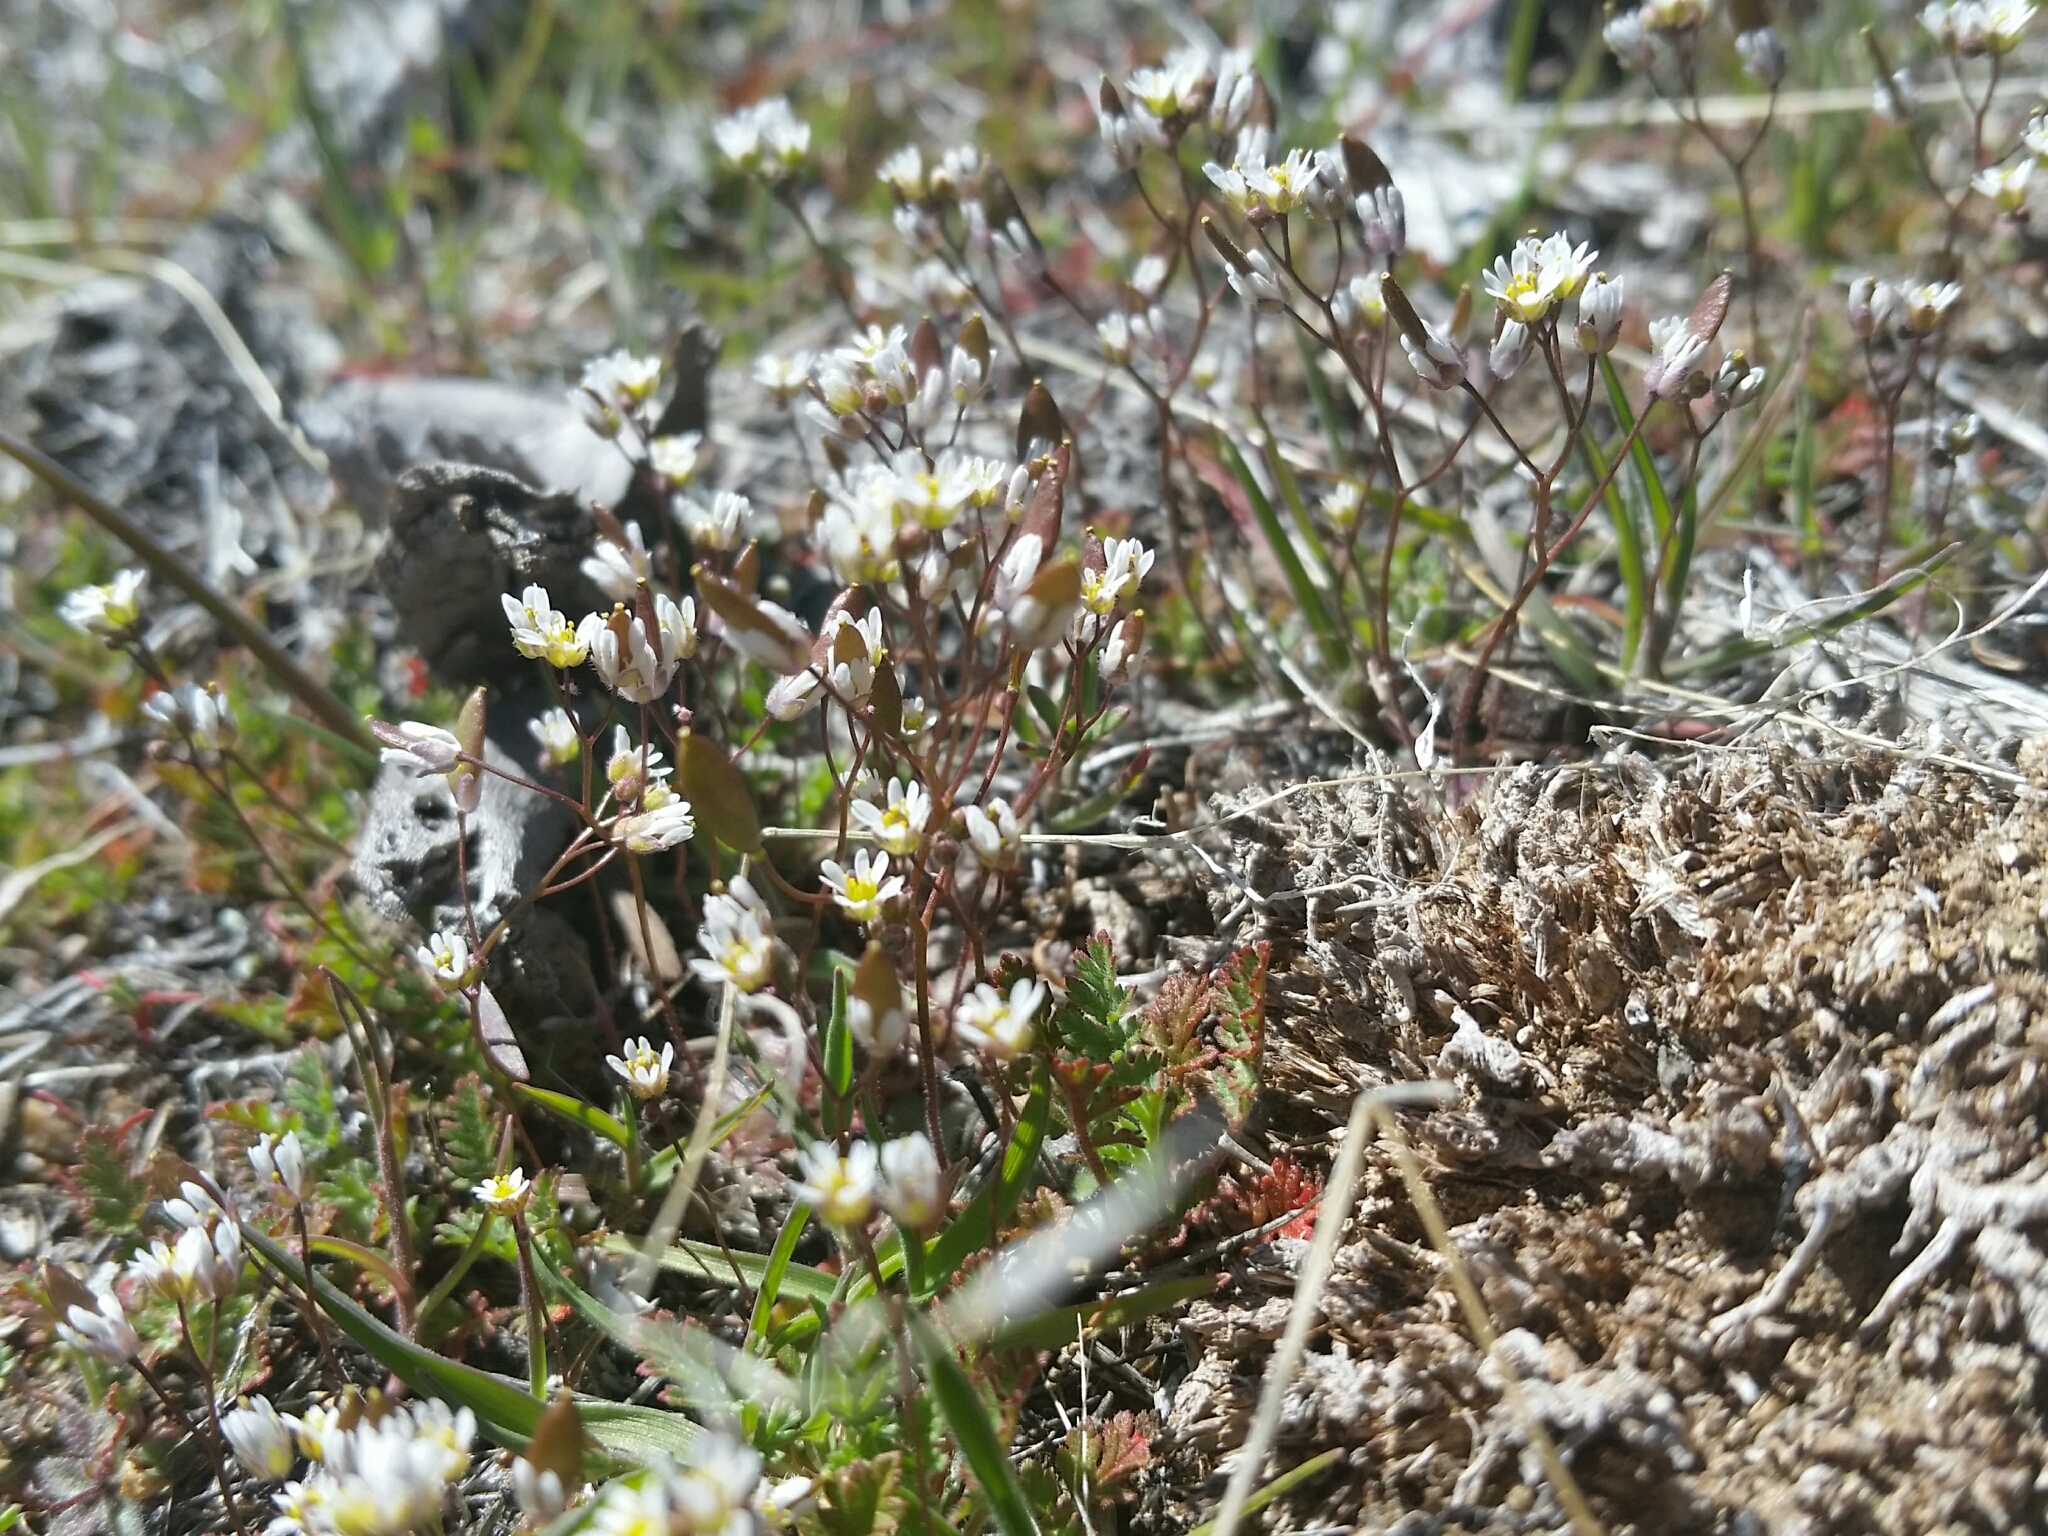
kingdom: Plantae
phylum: Tracheophyta
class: Magnoliopsida
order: Brassicales
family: Brassicaceae
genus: Draba
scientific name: Draba verna
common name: Spring draba
